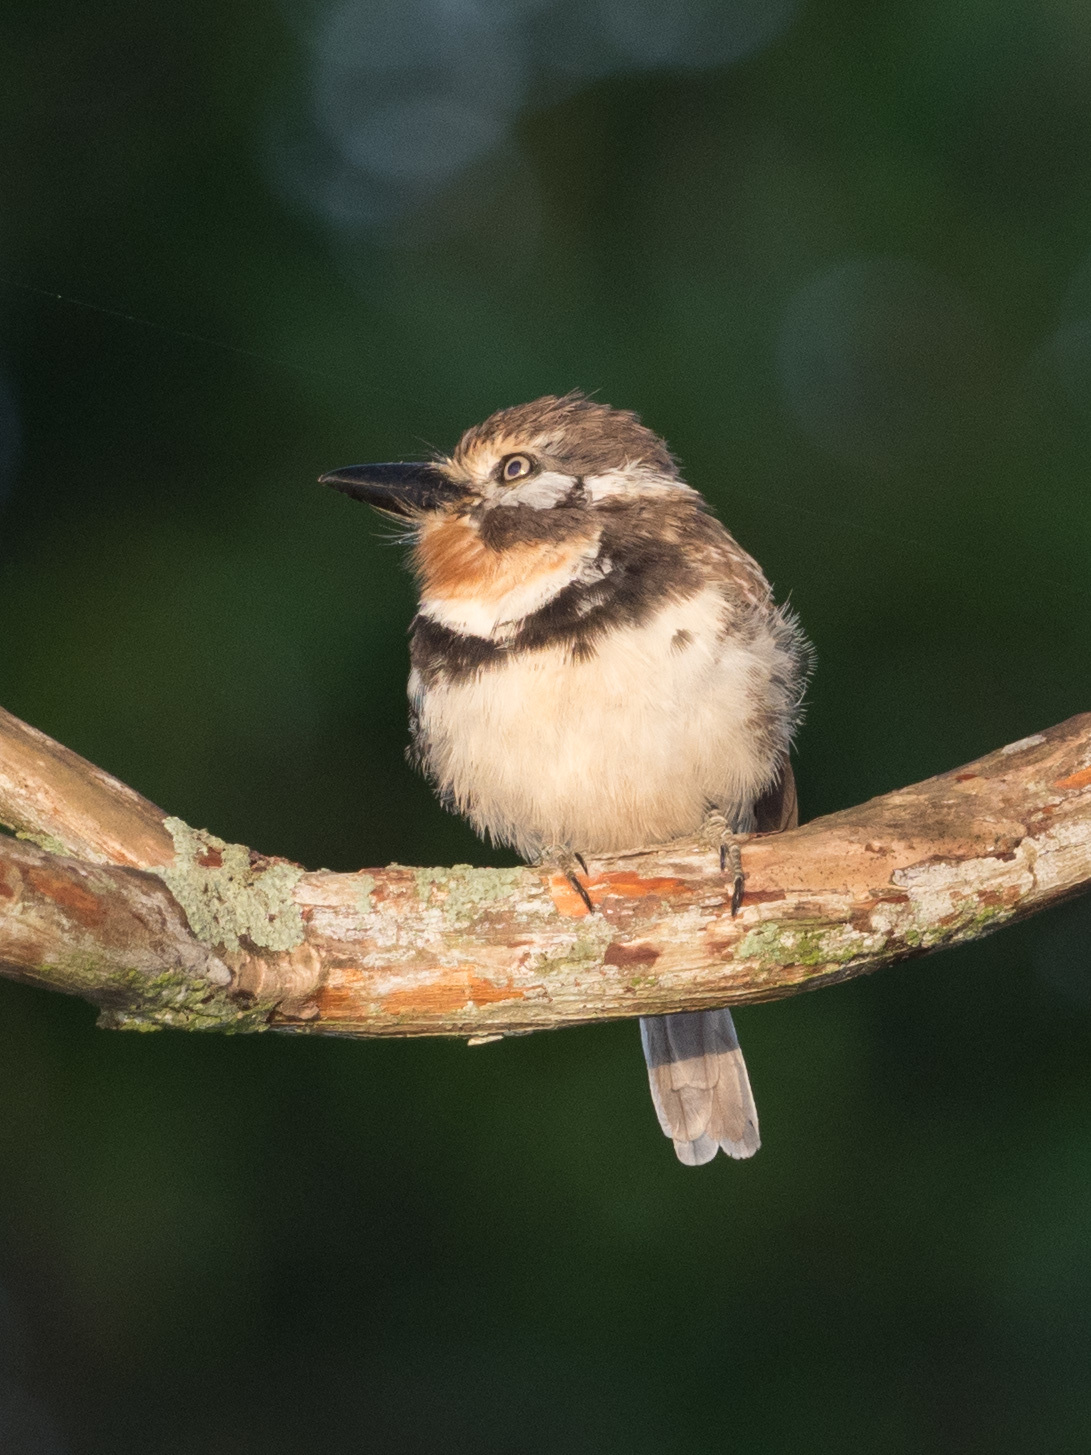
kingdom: Animalia
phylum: Chordata
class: Aves
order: Piciformes
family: Bucconidae
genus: Hypnelus
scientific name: Hypnelus ruficollis
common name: Russet-throated puffbird
